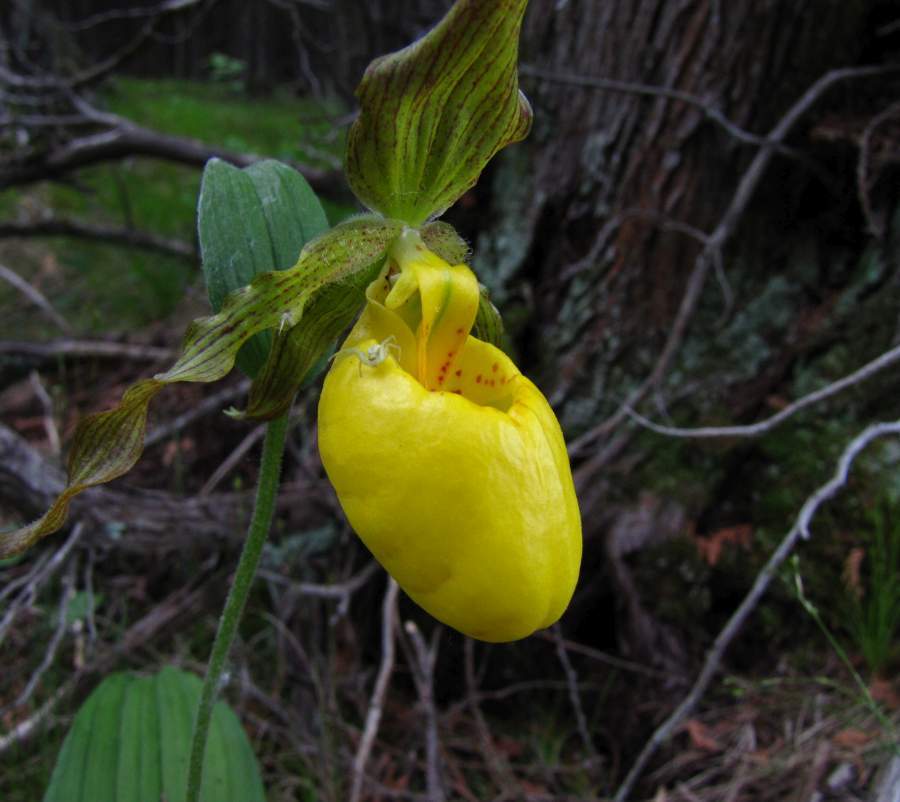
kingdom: Plantae
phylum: Tracheophyta
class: Liliopsida
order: Asparagales
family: Orchidaceae
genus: Cypripedium
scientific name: Cypripedium parviflorum
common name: American yellow lady's-slipper
